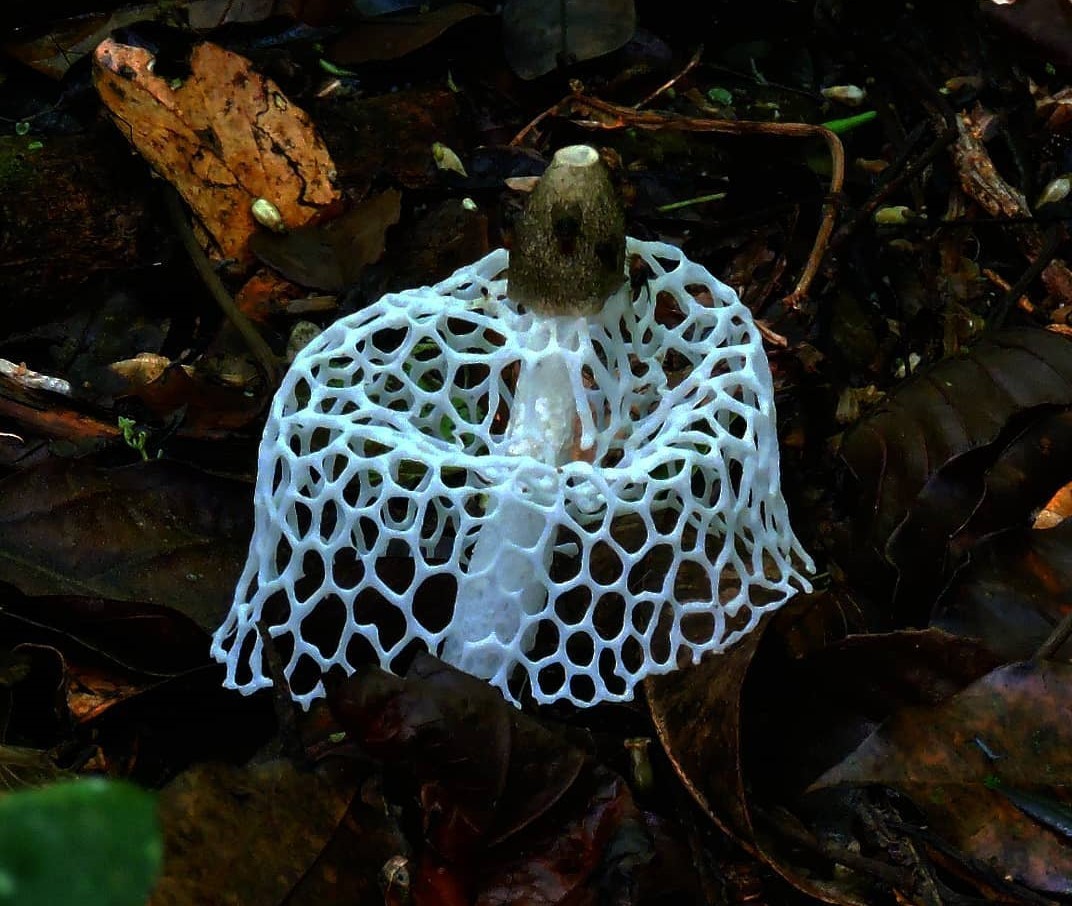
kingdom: Fungi
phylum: Basidiomycota
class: Agaricomycetes
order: Phallales
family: Phallaceae
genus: Phallus
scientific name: Phallus aureolatus
